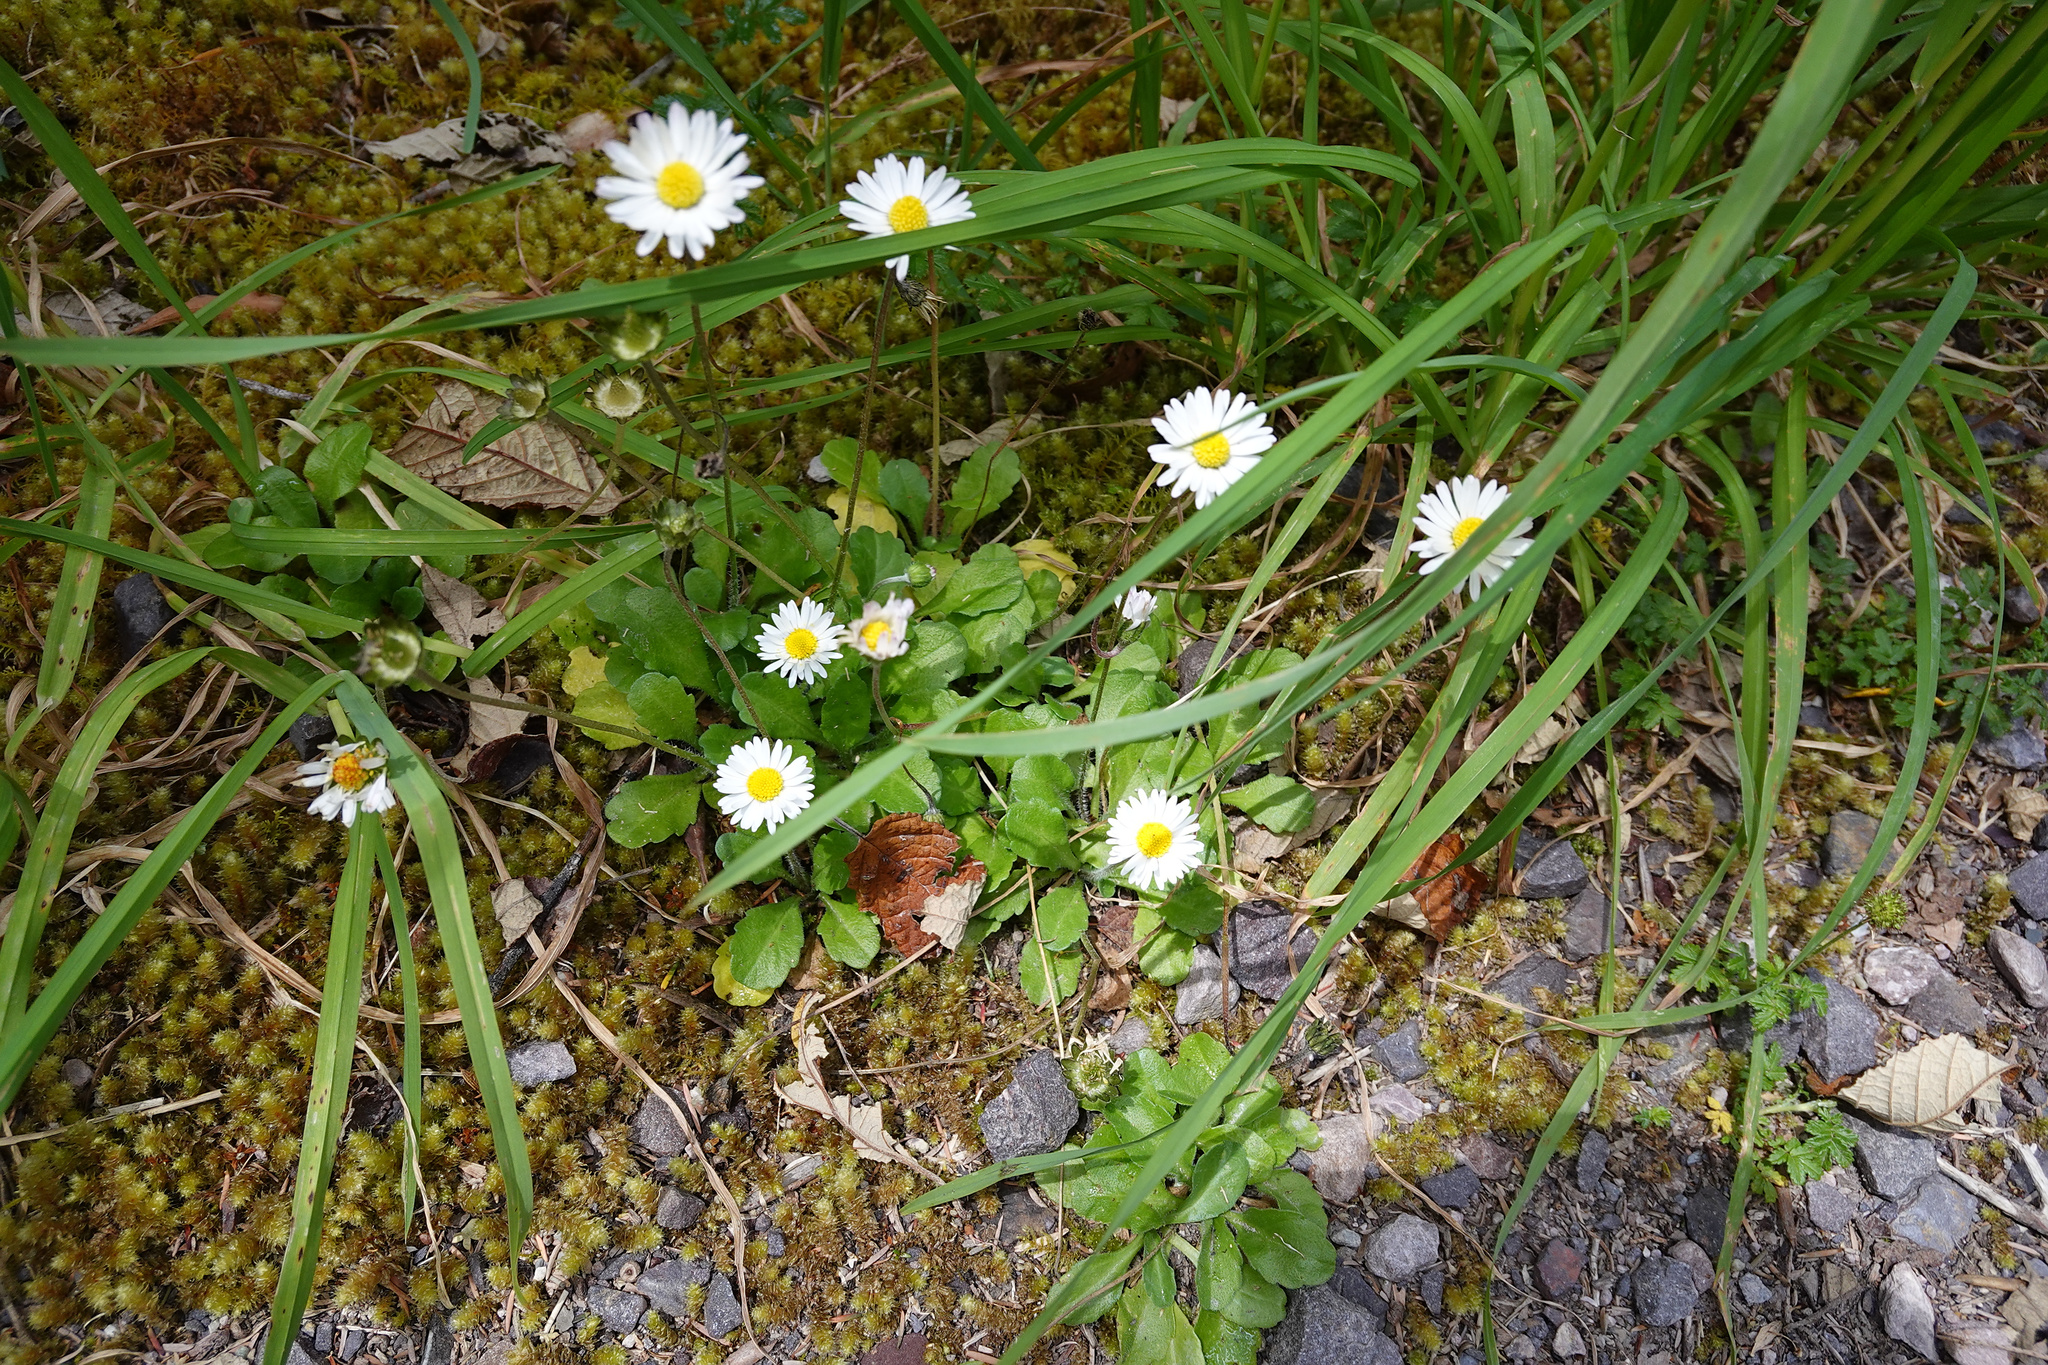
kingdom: Plantae
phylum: Tracheophyta
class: Magnoliopsida
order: Asterales
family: Asteraceae
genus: Bellis
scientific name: Bellis perennis
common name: Lawndaisy
